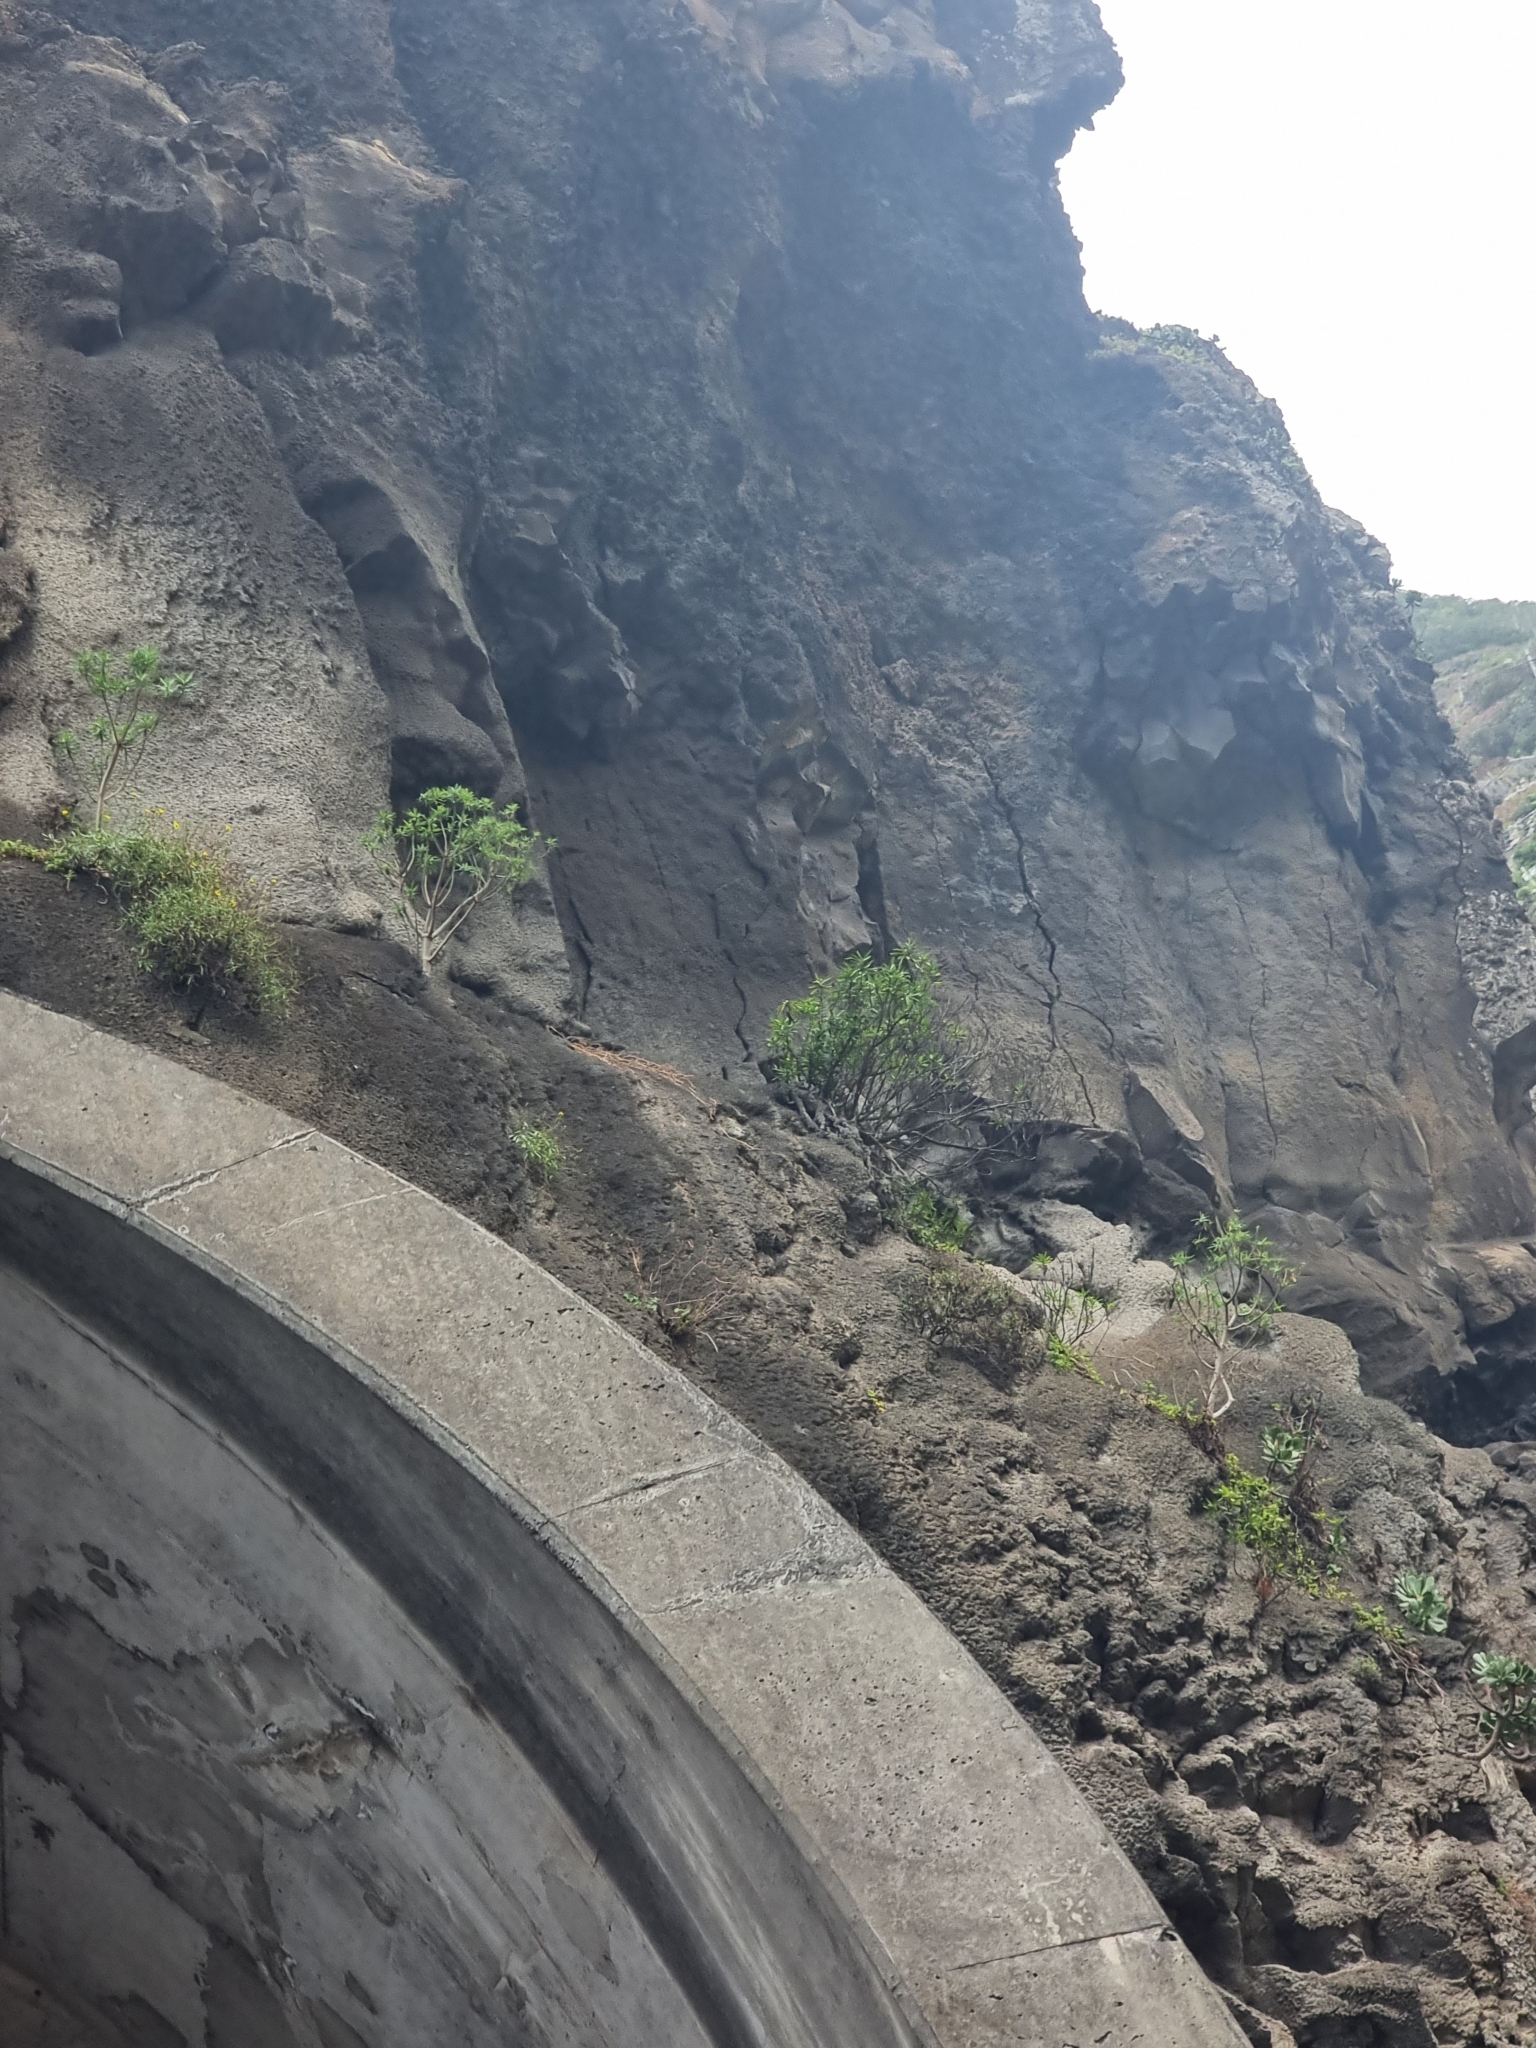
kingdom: Plantae
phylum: Tracheophyta
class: Magnoliopsida
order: Malpighiales
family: Euphorbiaceae
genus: Euphorbia
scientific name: Euphorbia piscatoria
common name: Fish-stunning spurge
